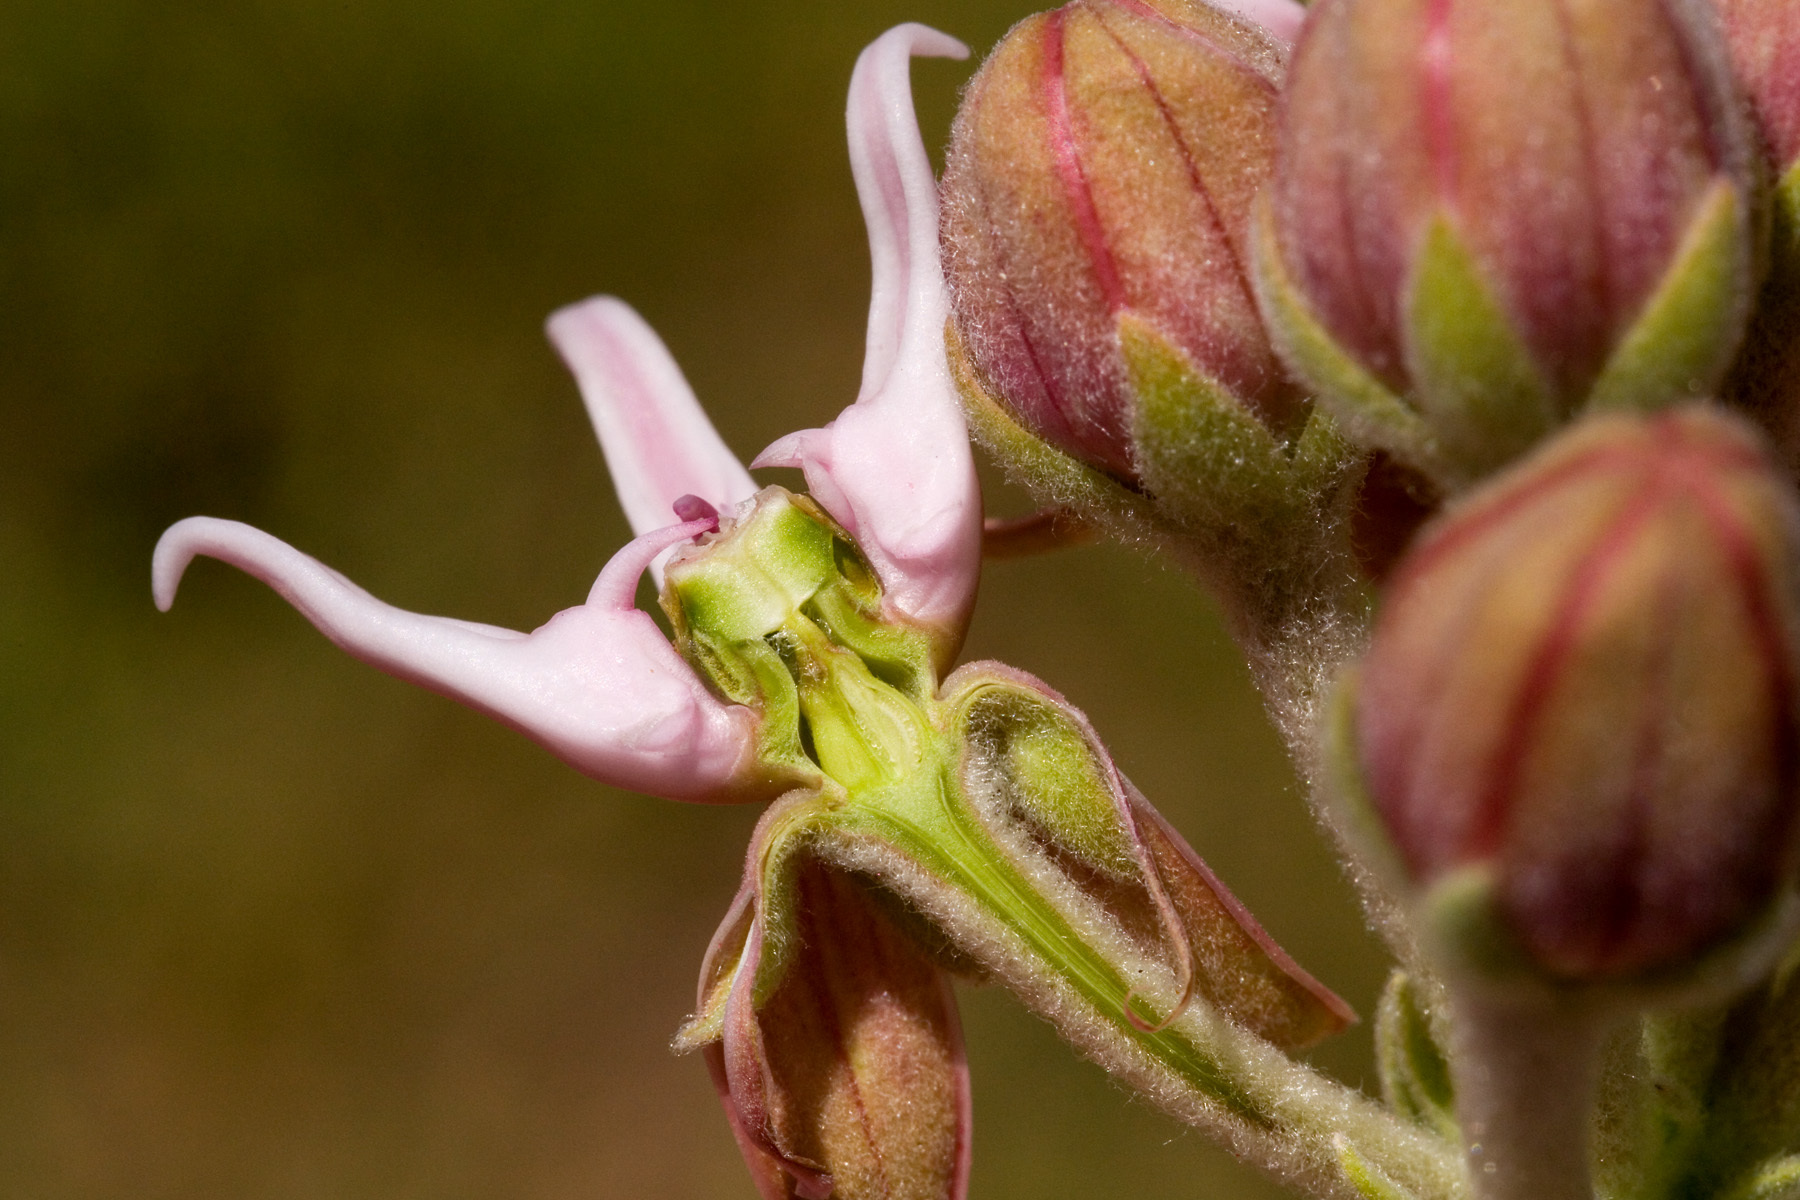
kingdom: Plantae
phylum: Tracheophyta
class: Magnoliopsida
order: Gentianales
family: Apocynaceae
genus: Asclepias
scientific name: Asclepias speciosa
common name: Showy milkweed
